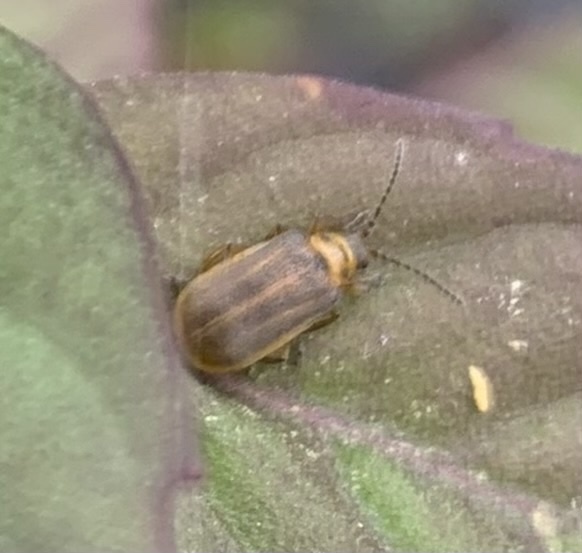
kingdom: Animalia
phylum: Arthropoda
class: Insecta
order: Coleoptera
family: Chrysomelidae
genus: Galerucella
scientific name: Galerucella nymphaeae
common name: Leaf beetle
